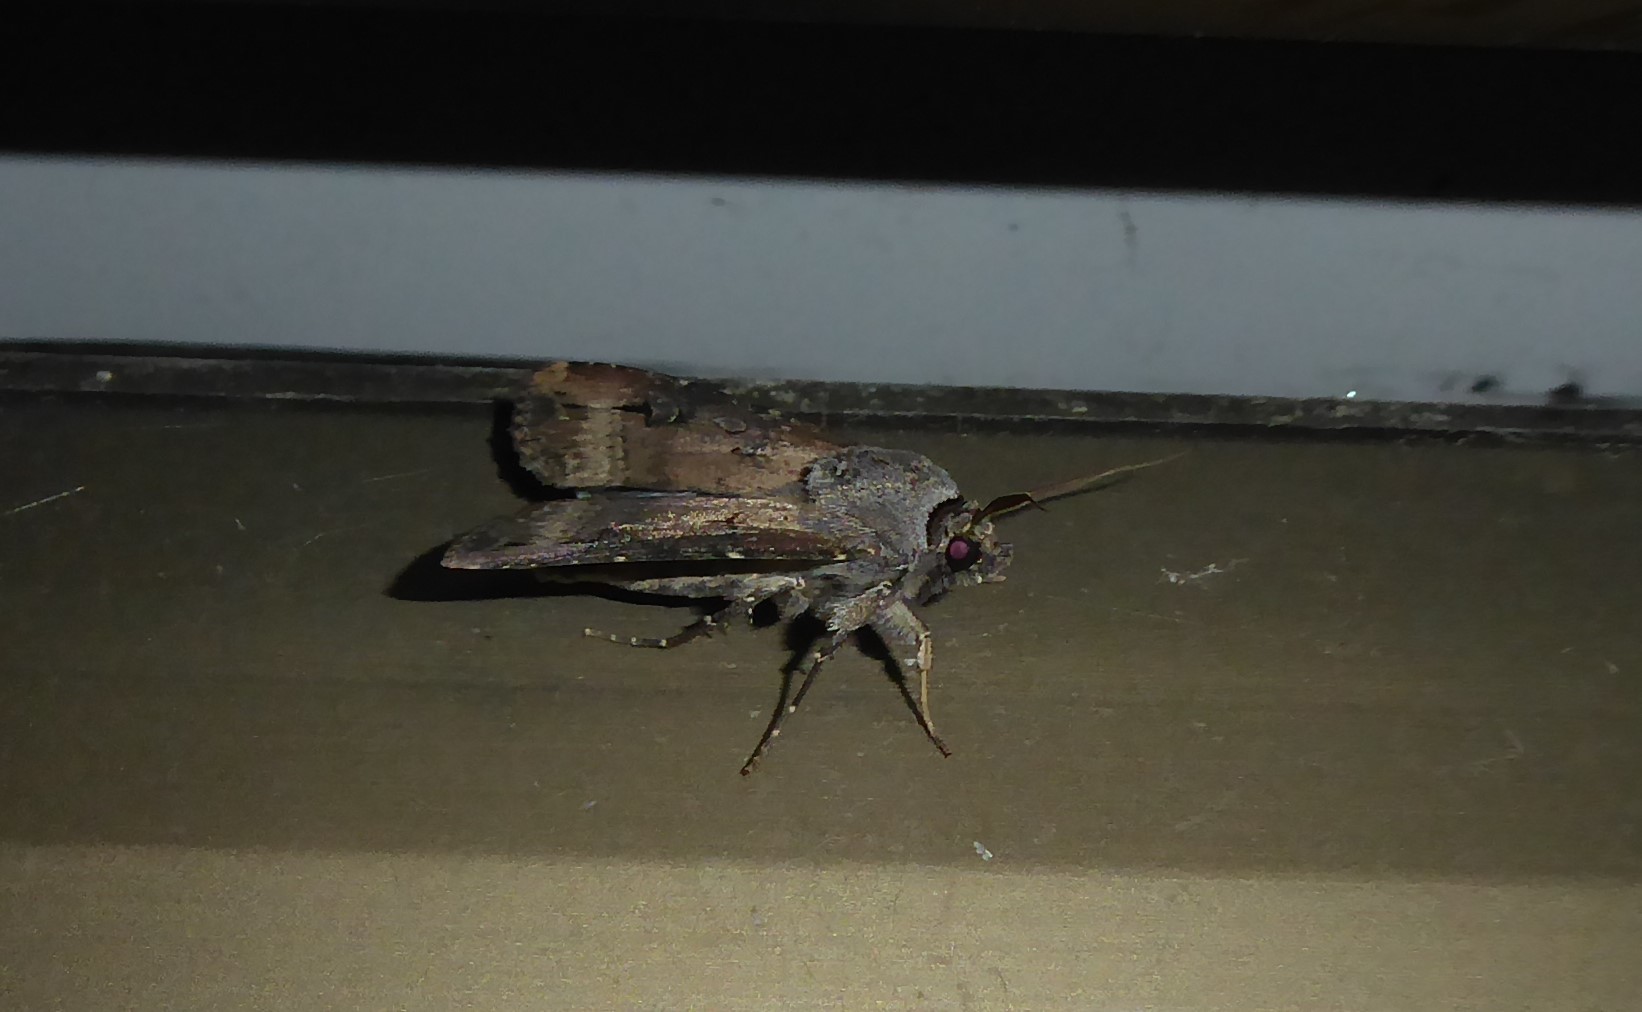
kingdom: Animalia
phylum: Arthropoda
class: Insecta
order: Lepidoptera
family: Noctuidae
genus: Agrotis
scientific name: Agrotis ipsilon
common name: Dark sword-grass
